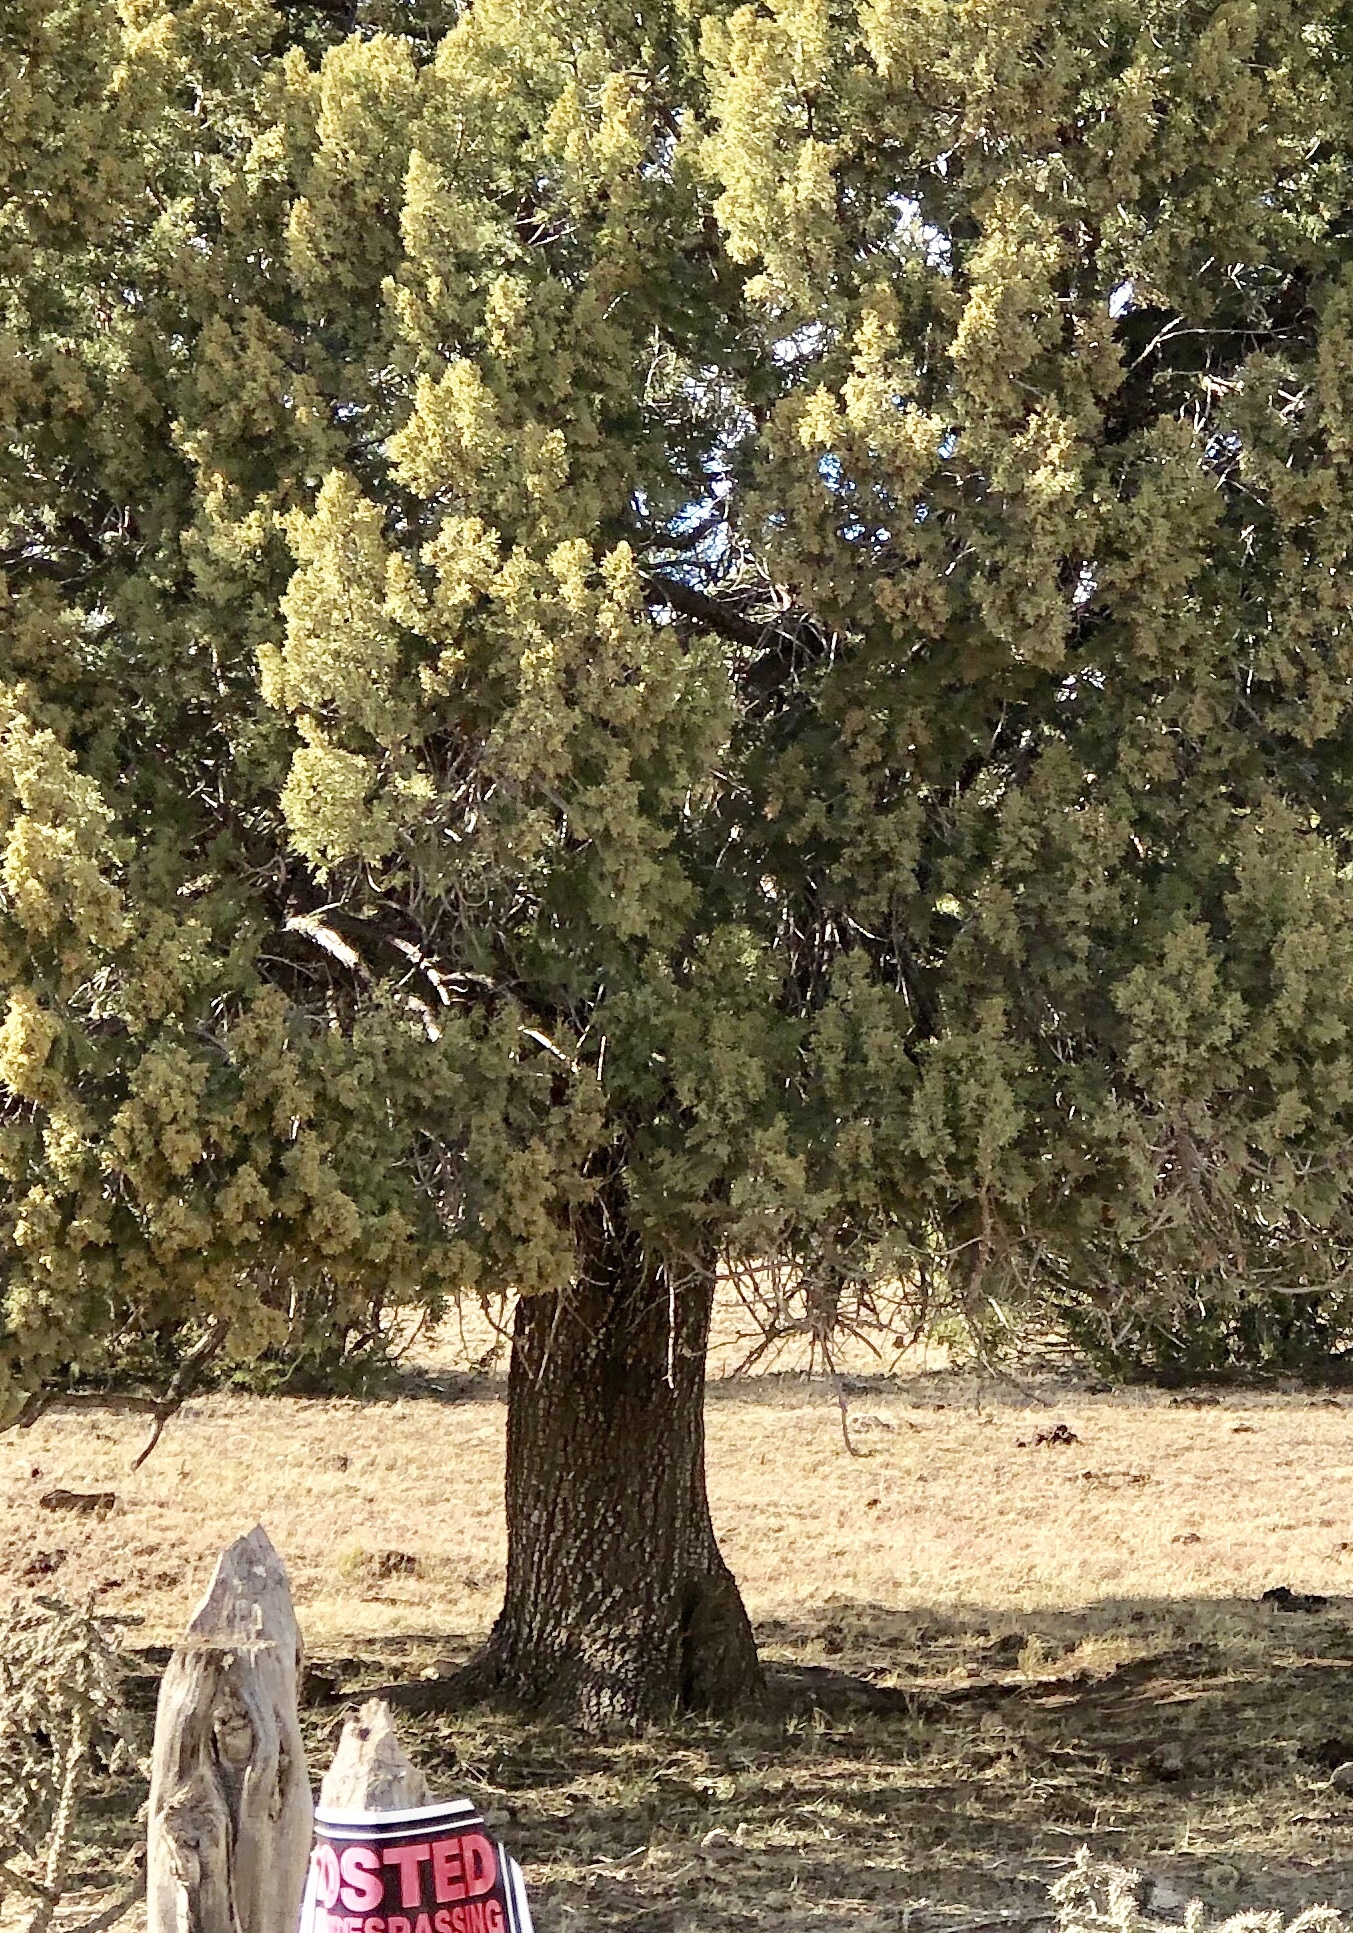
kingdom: Plantae
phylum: Tracheophyta
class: Pinopsida
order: Pinales
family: Cupressaceae
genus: Juniperus
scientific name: Juniperus deppeana
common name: Alligator juniper
